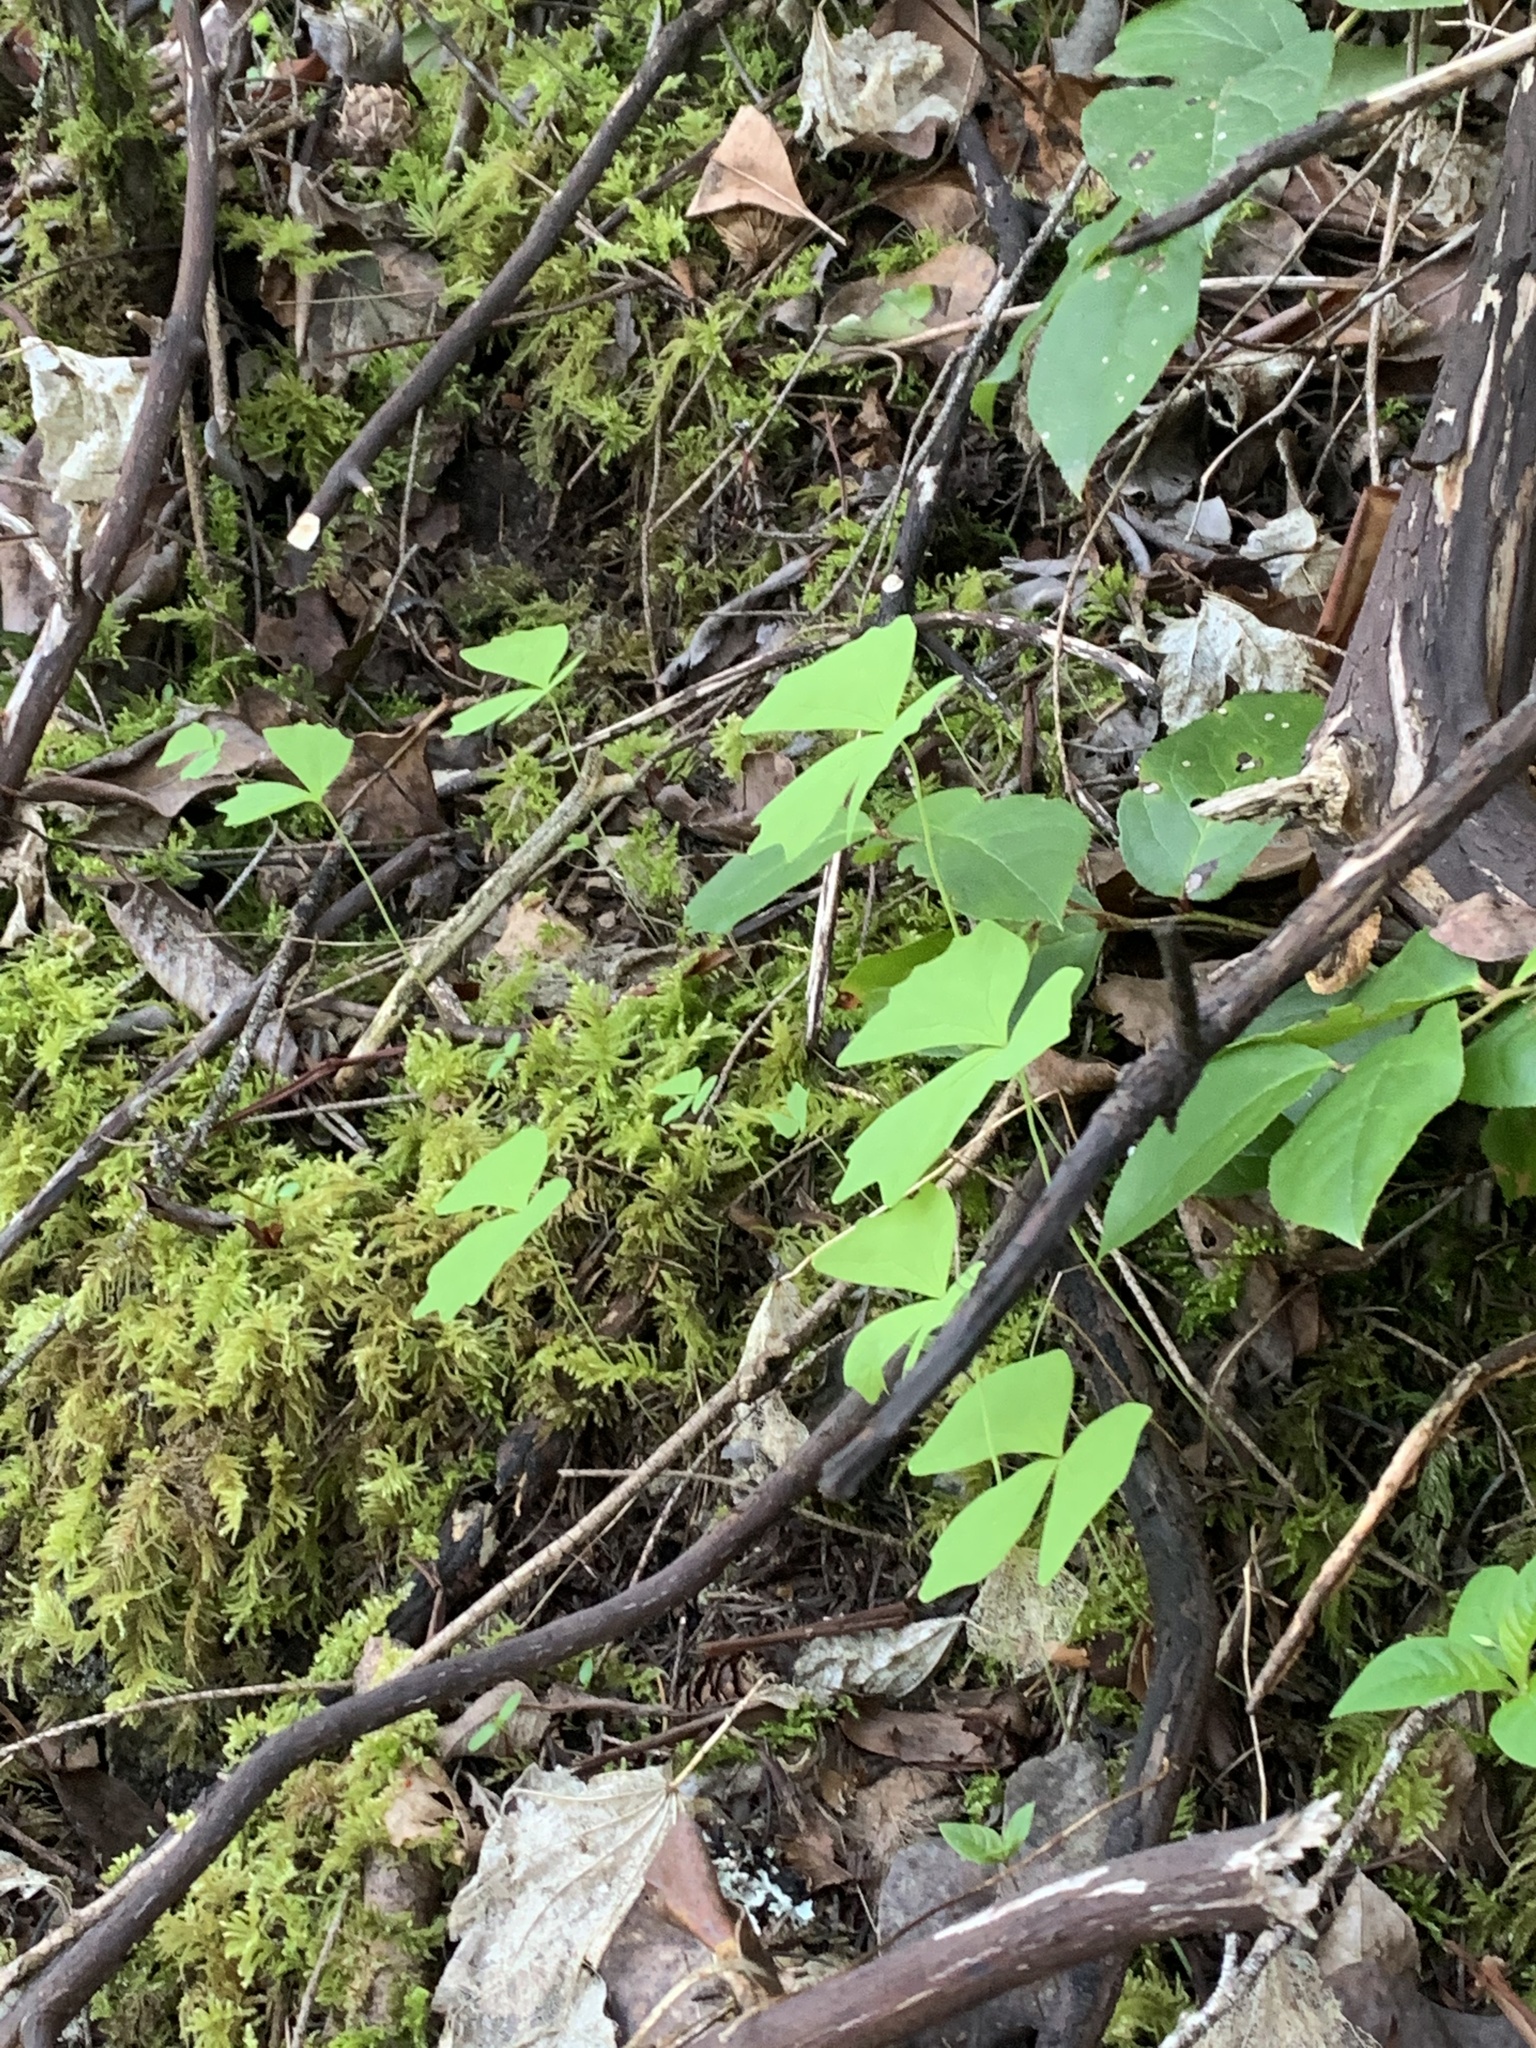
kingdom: Plantae
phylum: Tracheophyta
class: Magnoliopsida
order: Ranunculales
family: Berberidaceae
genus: Achlys
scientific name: Achlys triphylla
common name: Vanilla-leaf
